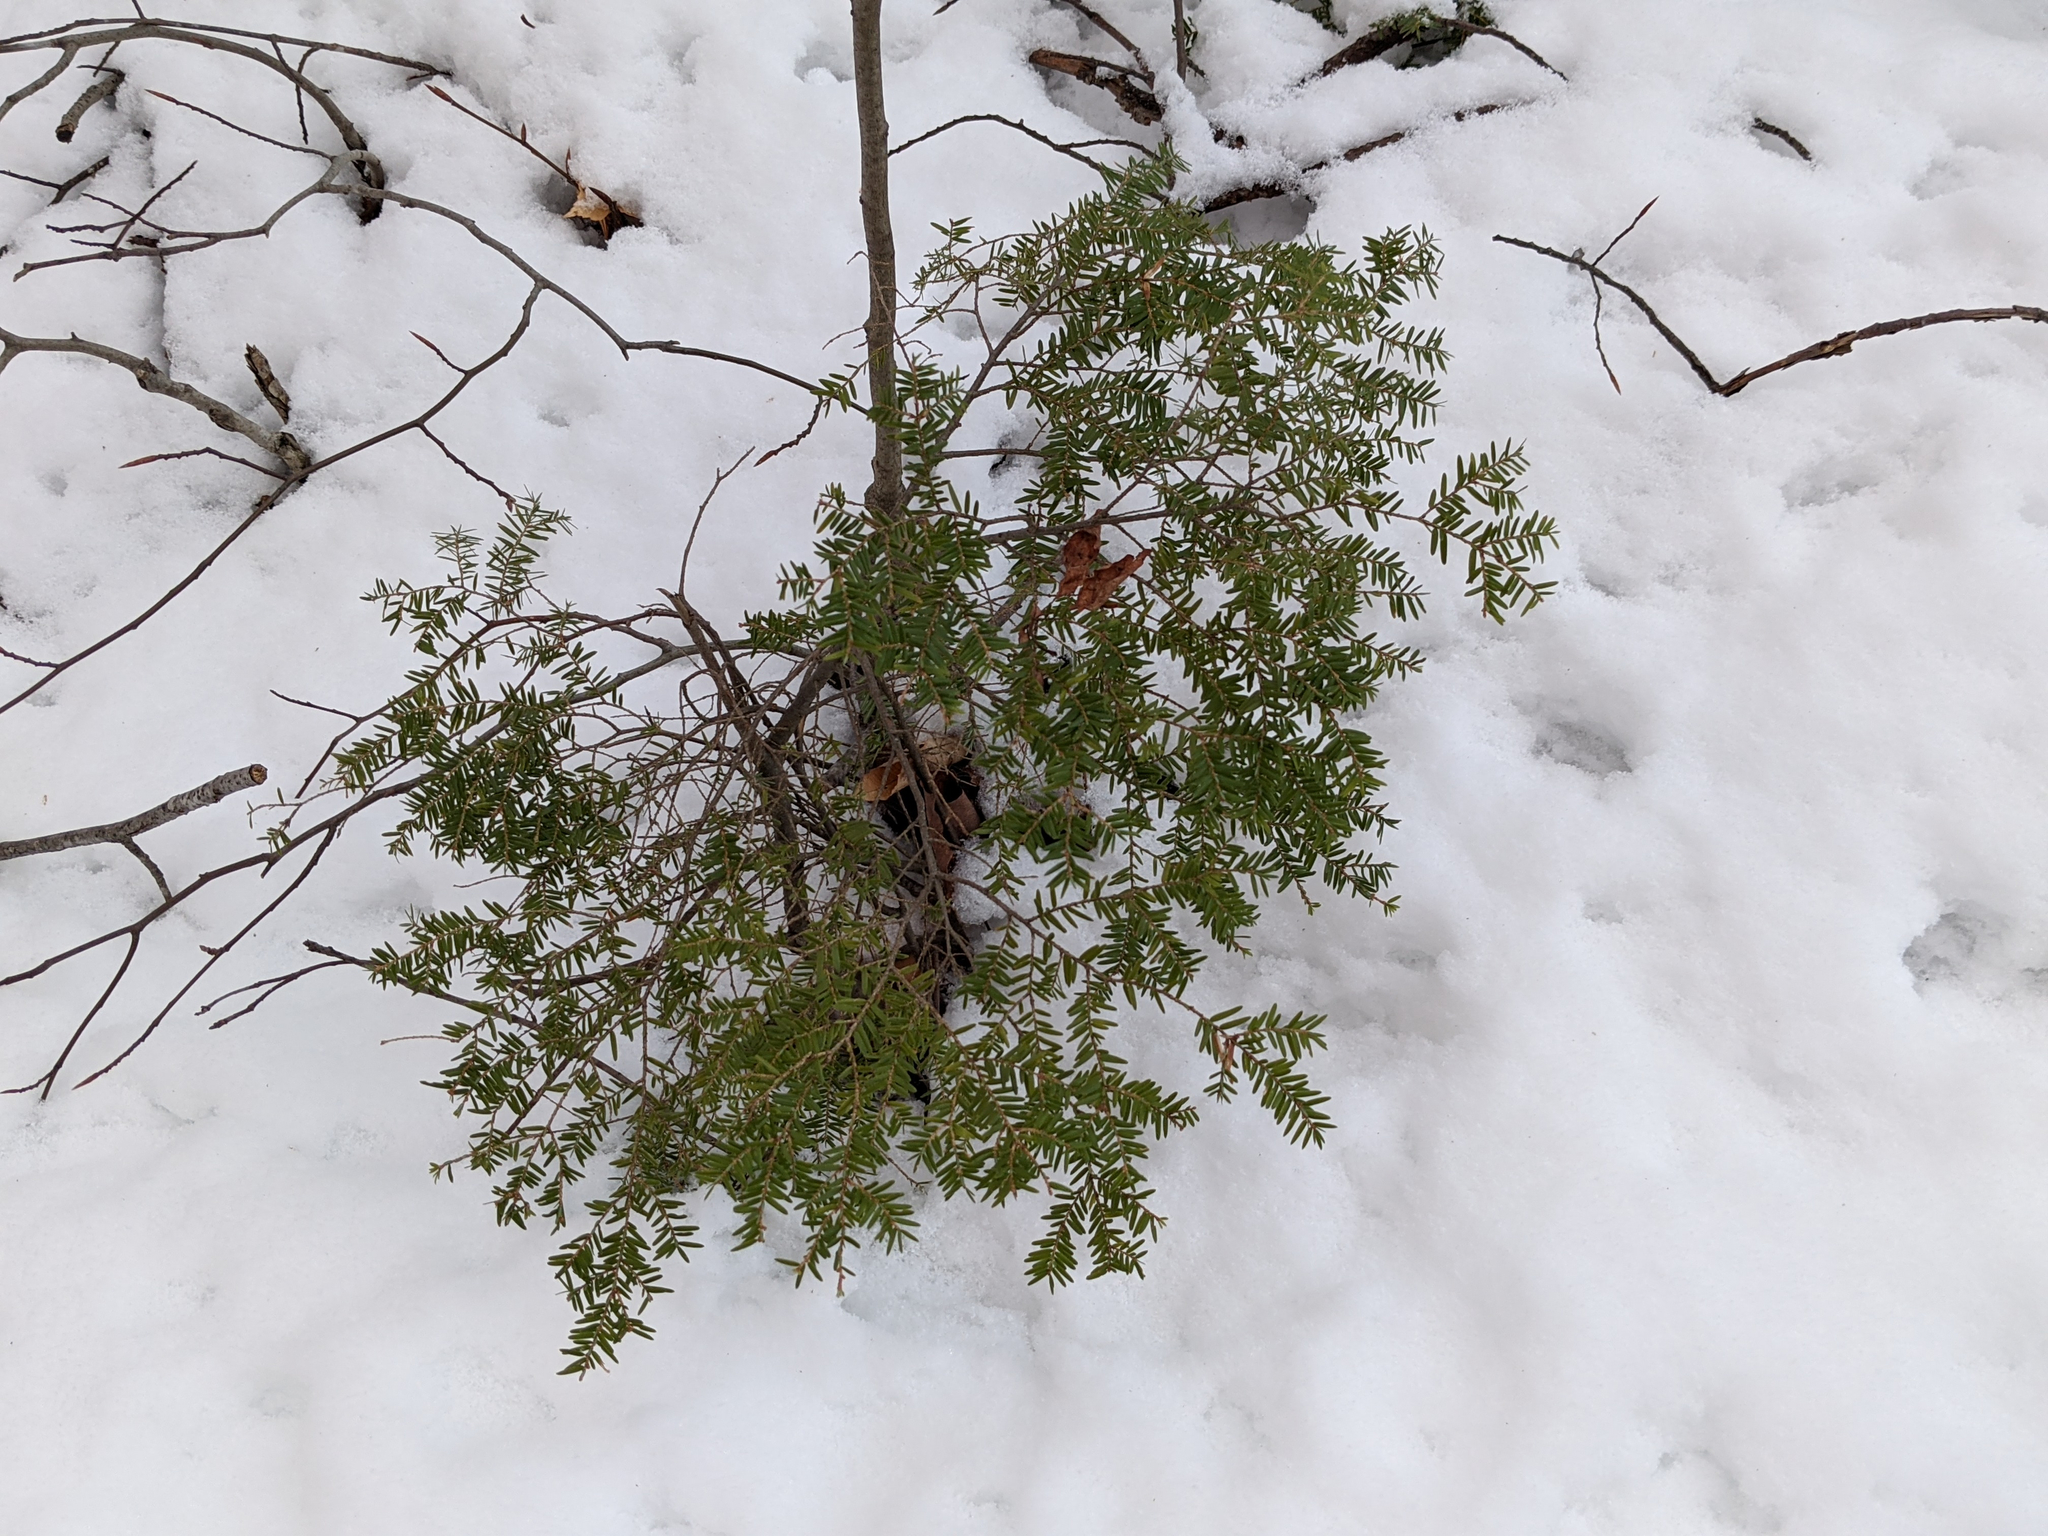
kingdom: Plantae
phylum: Tracheophyta
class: Pinopsida
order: Pinales
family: Pinaceae
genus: Tsuga
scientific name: Tsuga canadensis
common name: Eastern hemlock
